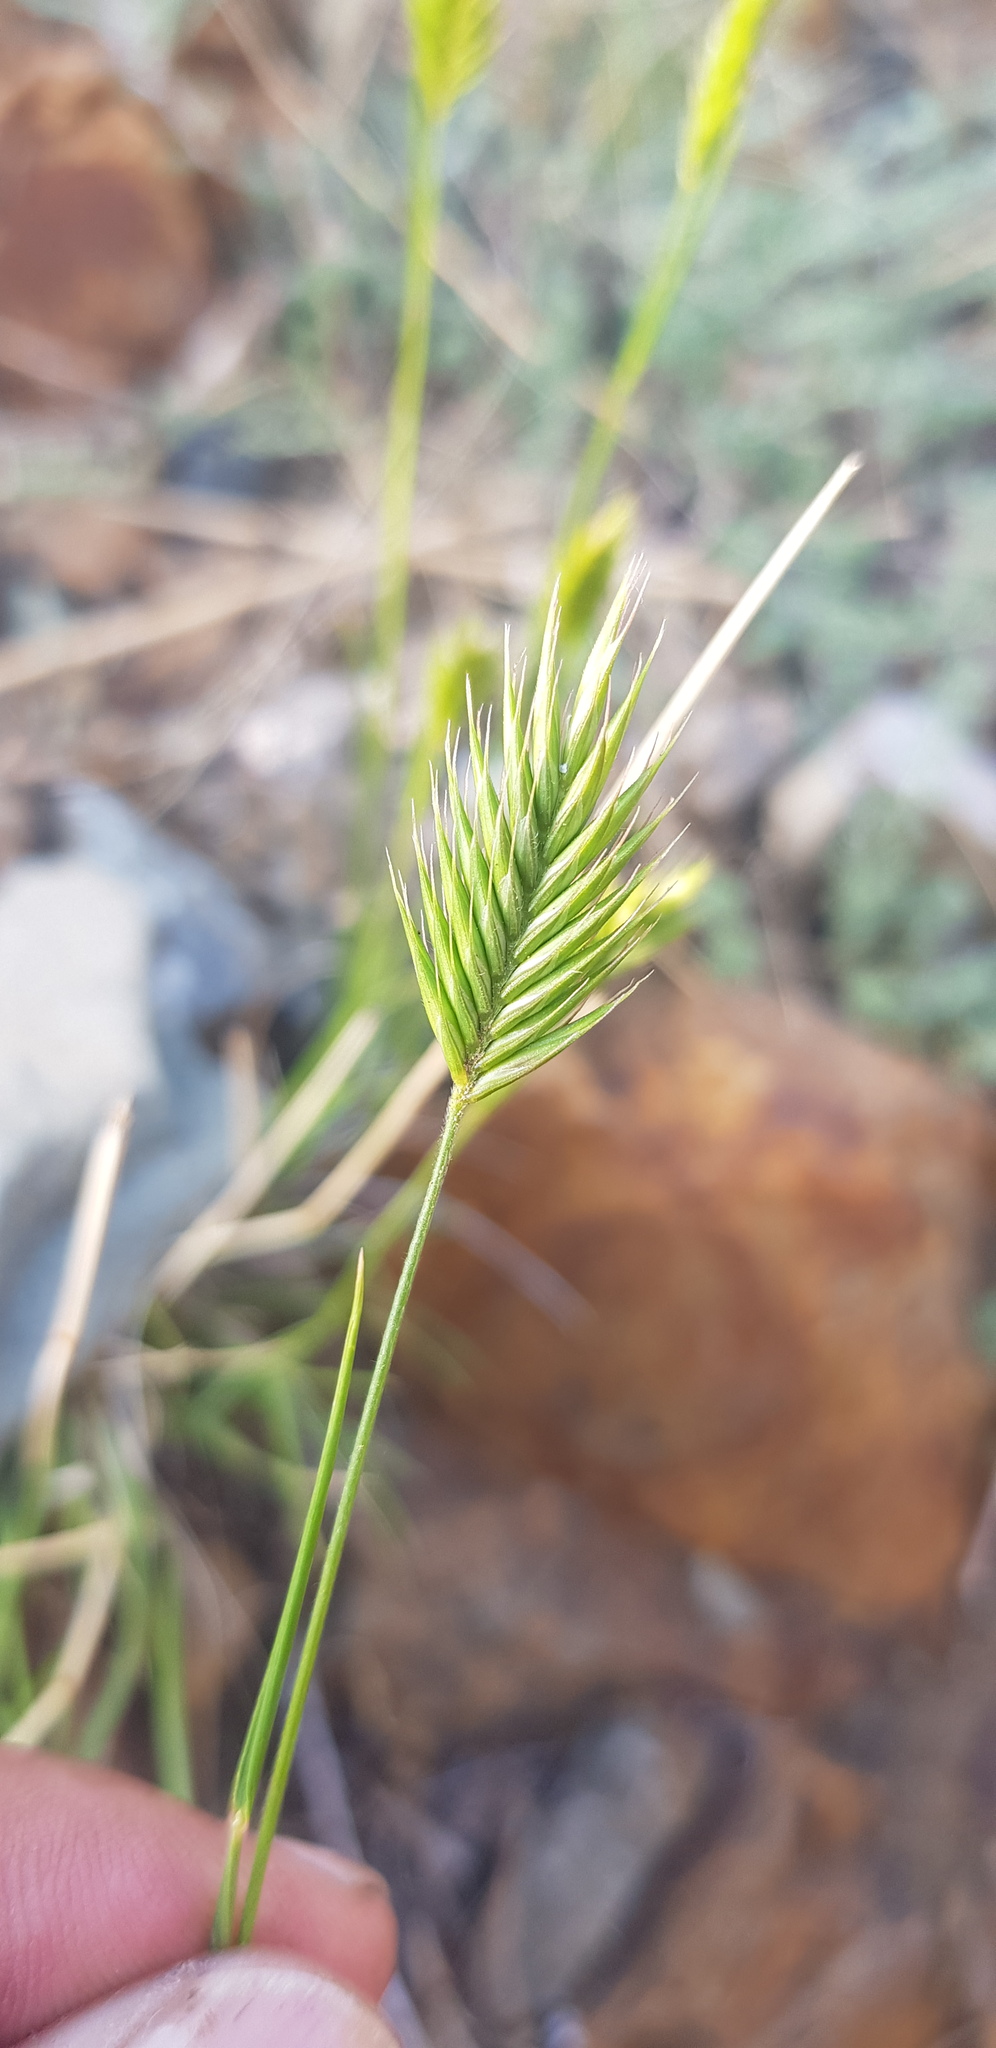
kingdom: Plantae
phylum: Tracheophyta
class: Liliopsida
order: Poales
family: Poaceae
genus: Agropyron
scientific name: Agropyron cristatum
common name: Crested wheatgrass
